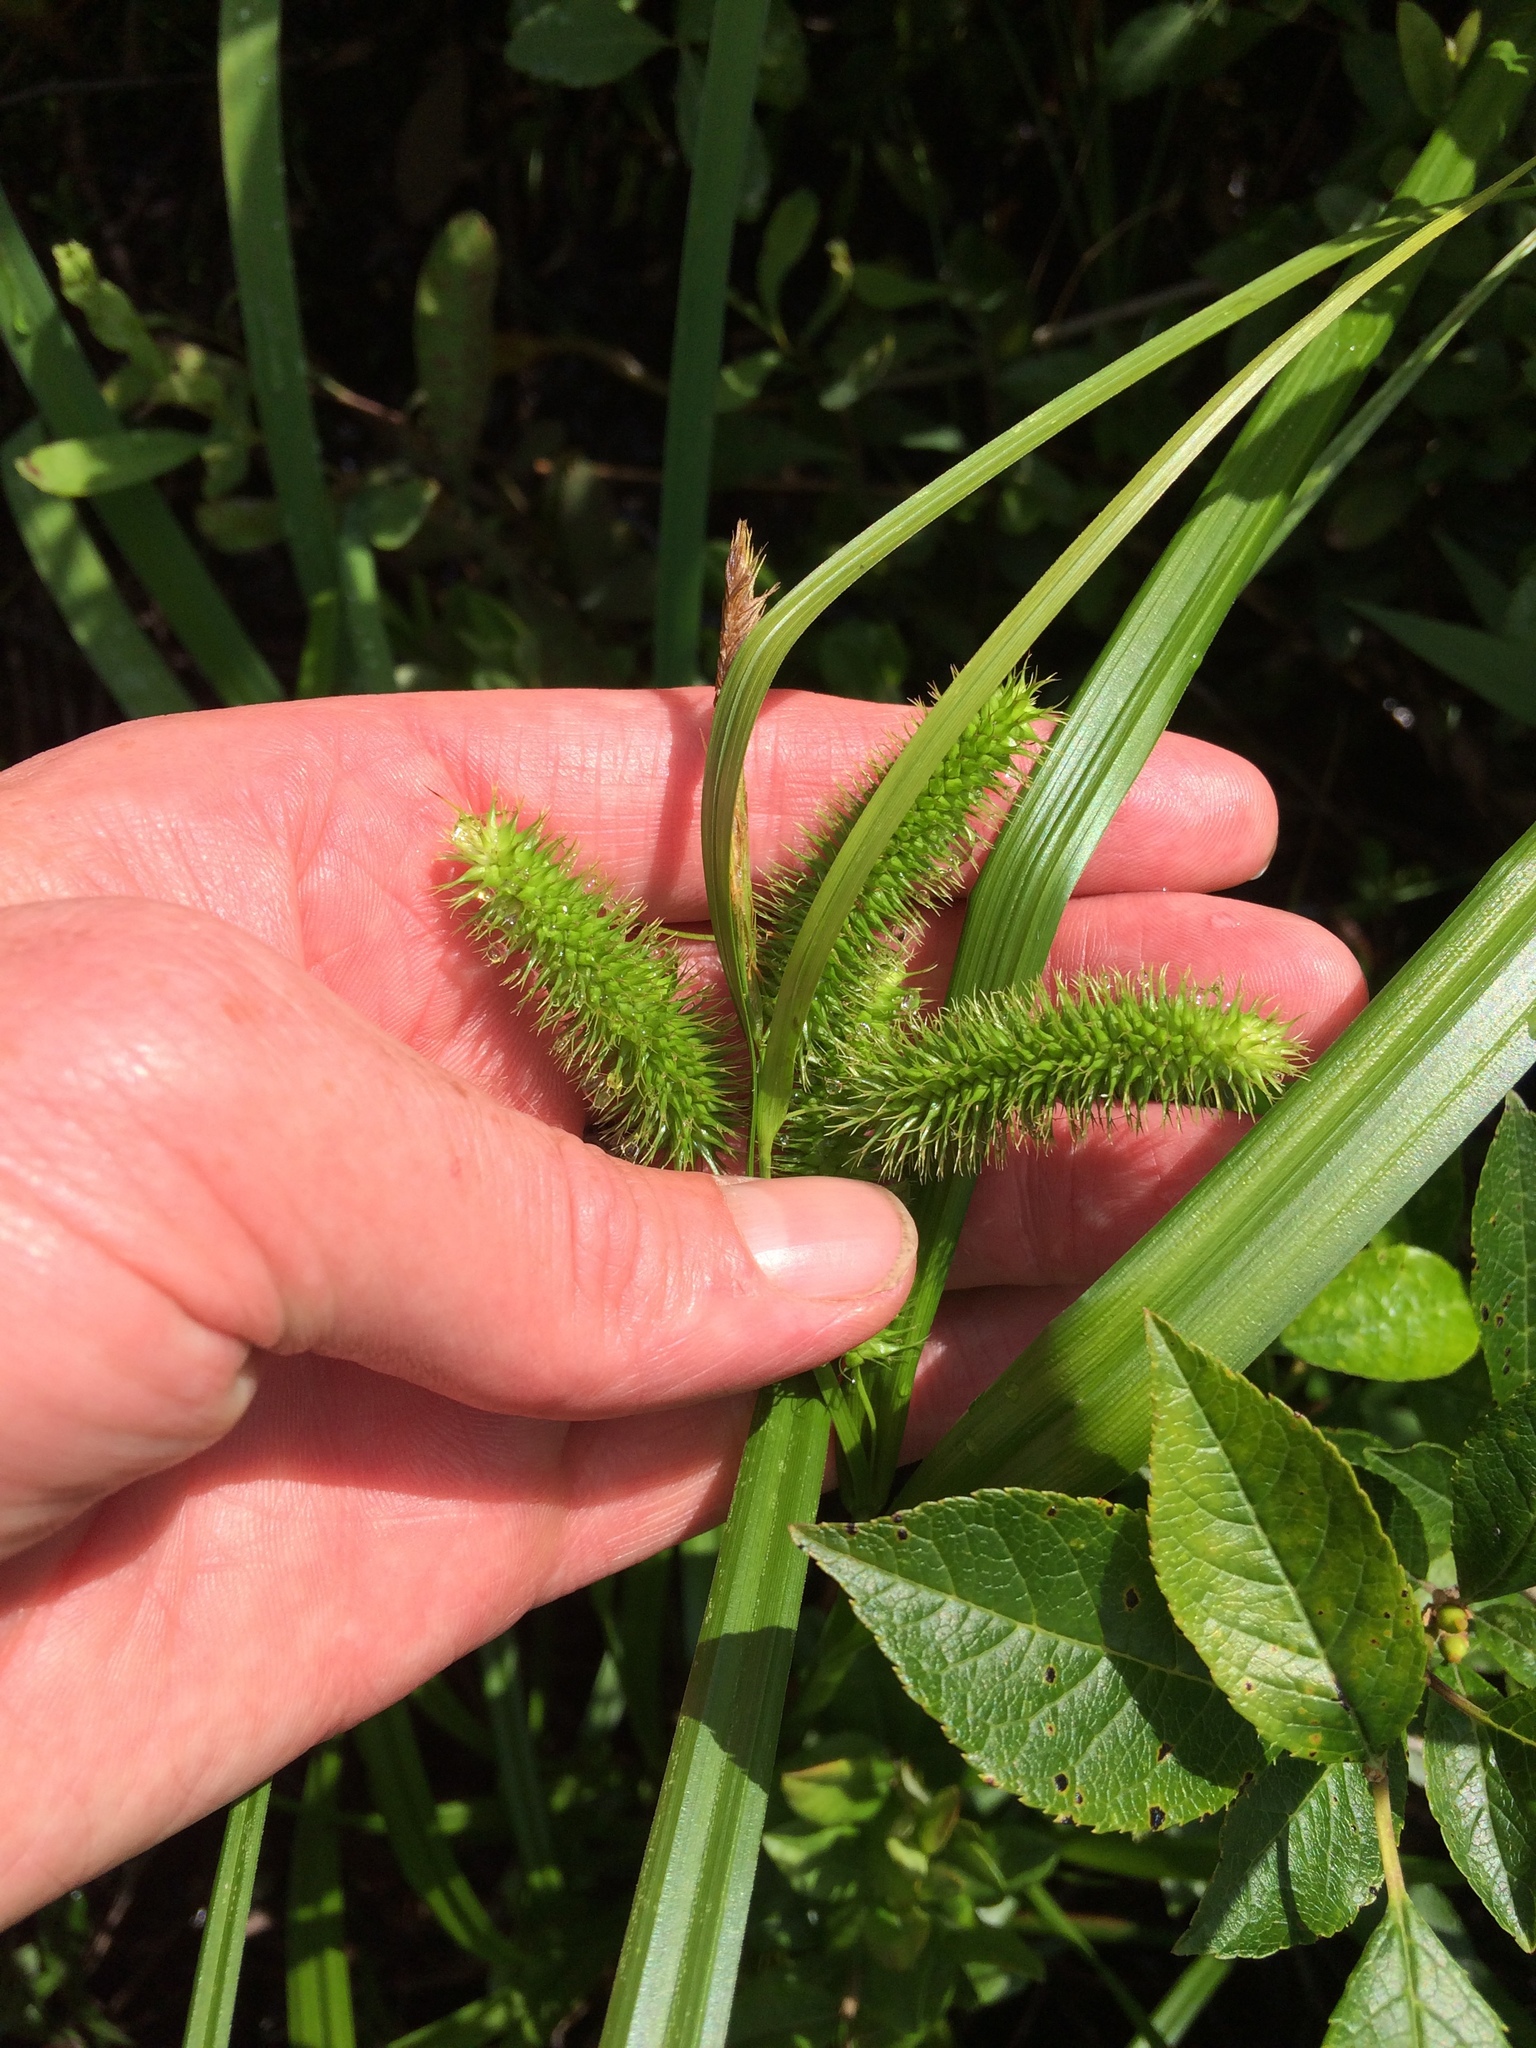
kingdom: Plantae
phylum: Tracheophyta
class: Liliopsida
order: Poales
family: Cyperaceae
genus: Carex
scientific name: Carex comosa
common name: Bristly sedge
